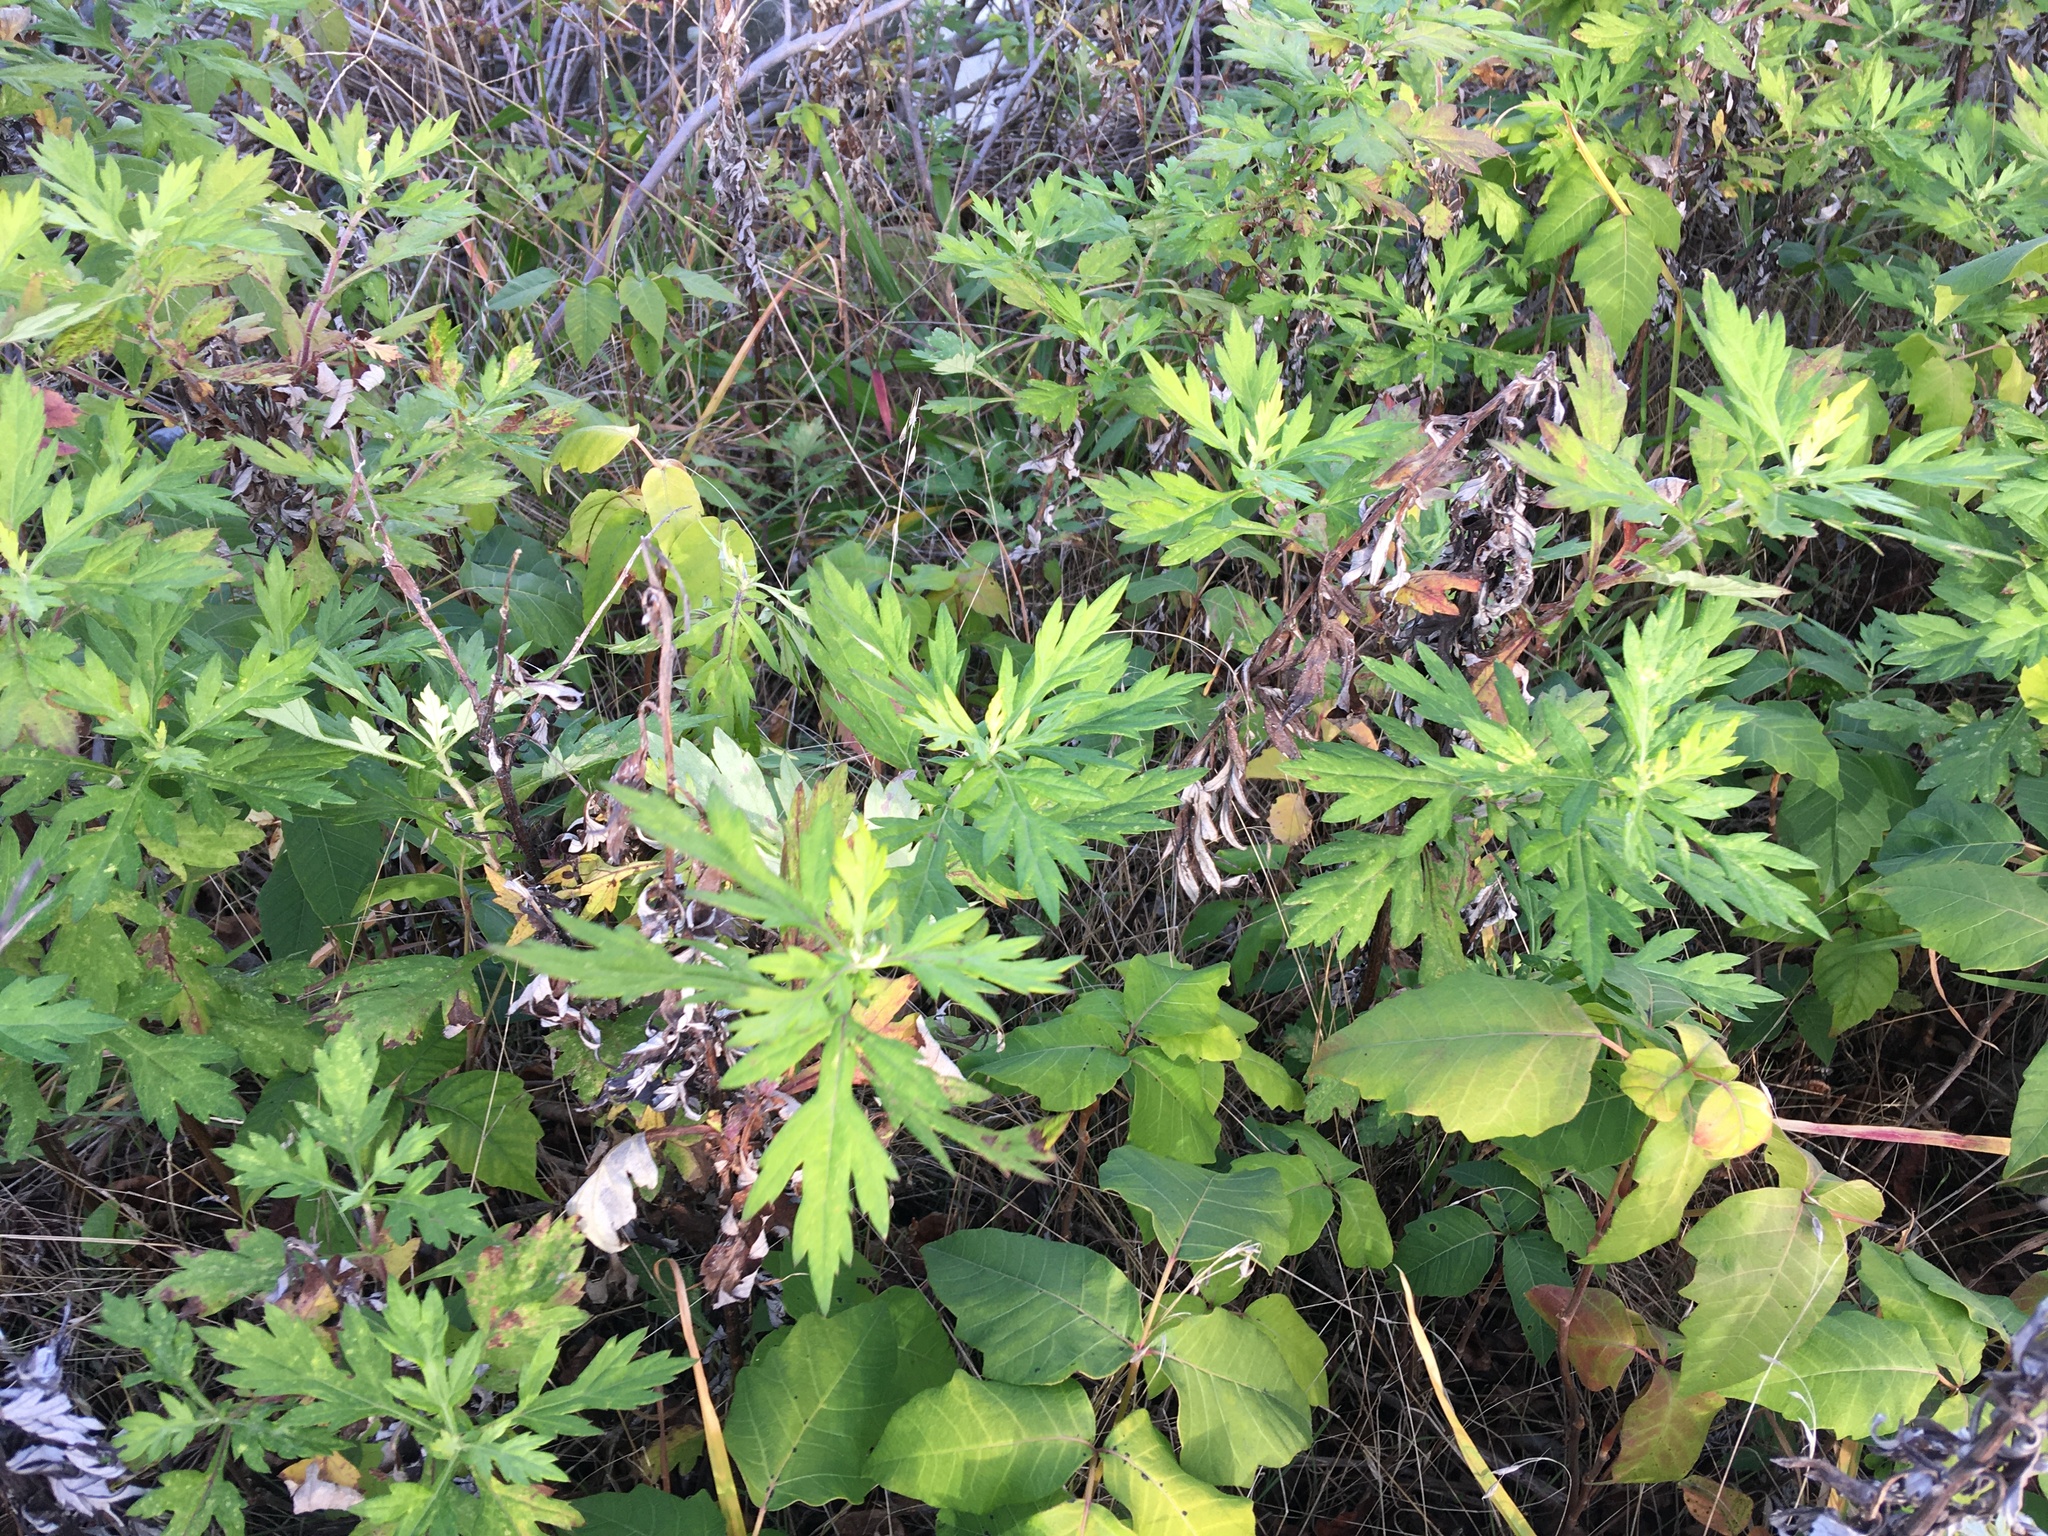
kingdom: Plantae
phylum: Tracheophyta
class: Magnoliopsida
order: Asterales
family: Asteraceae
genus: Artemisia
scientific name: Artemisia vulgaris
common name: Mugwort
